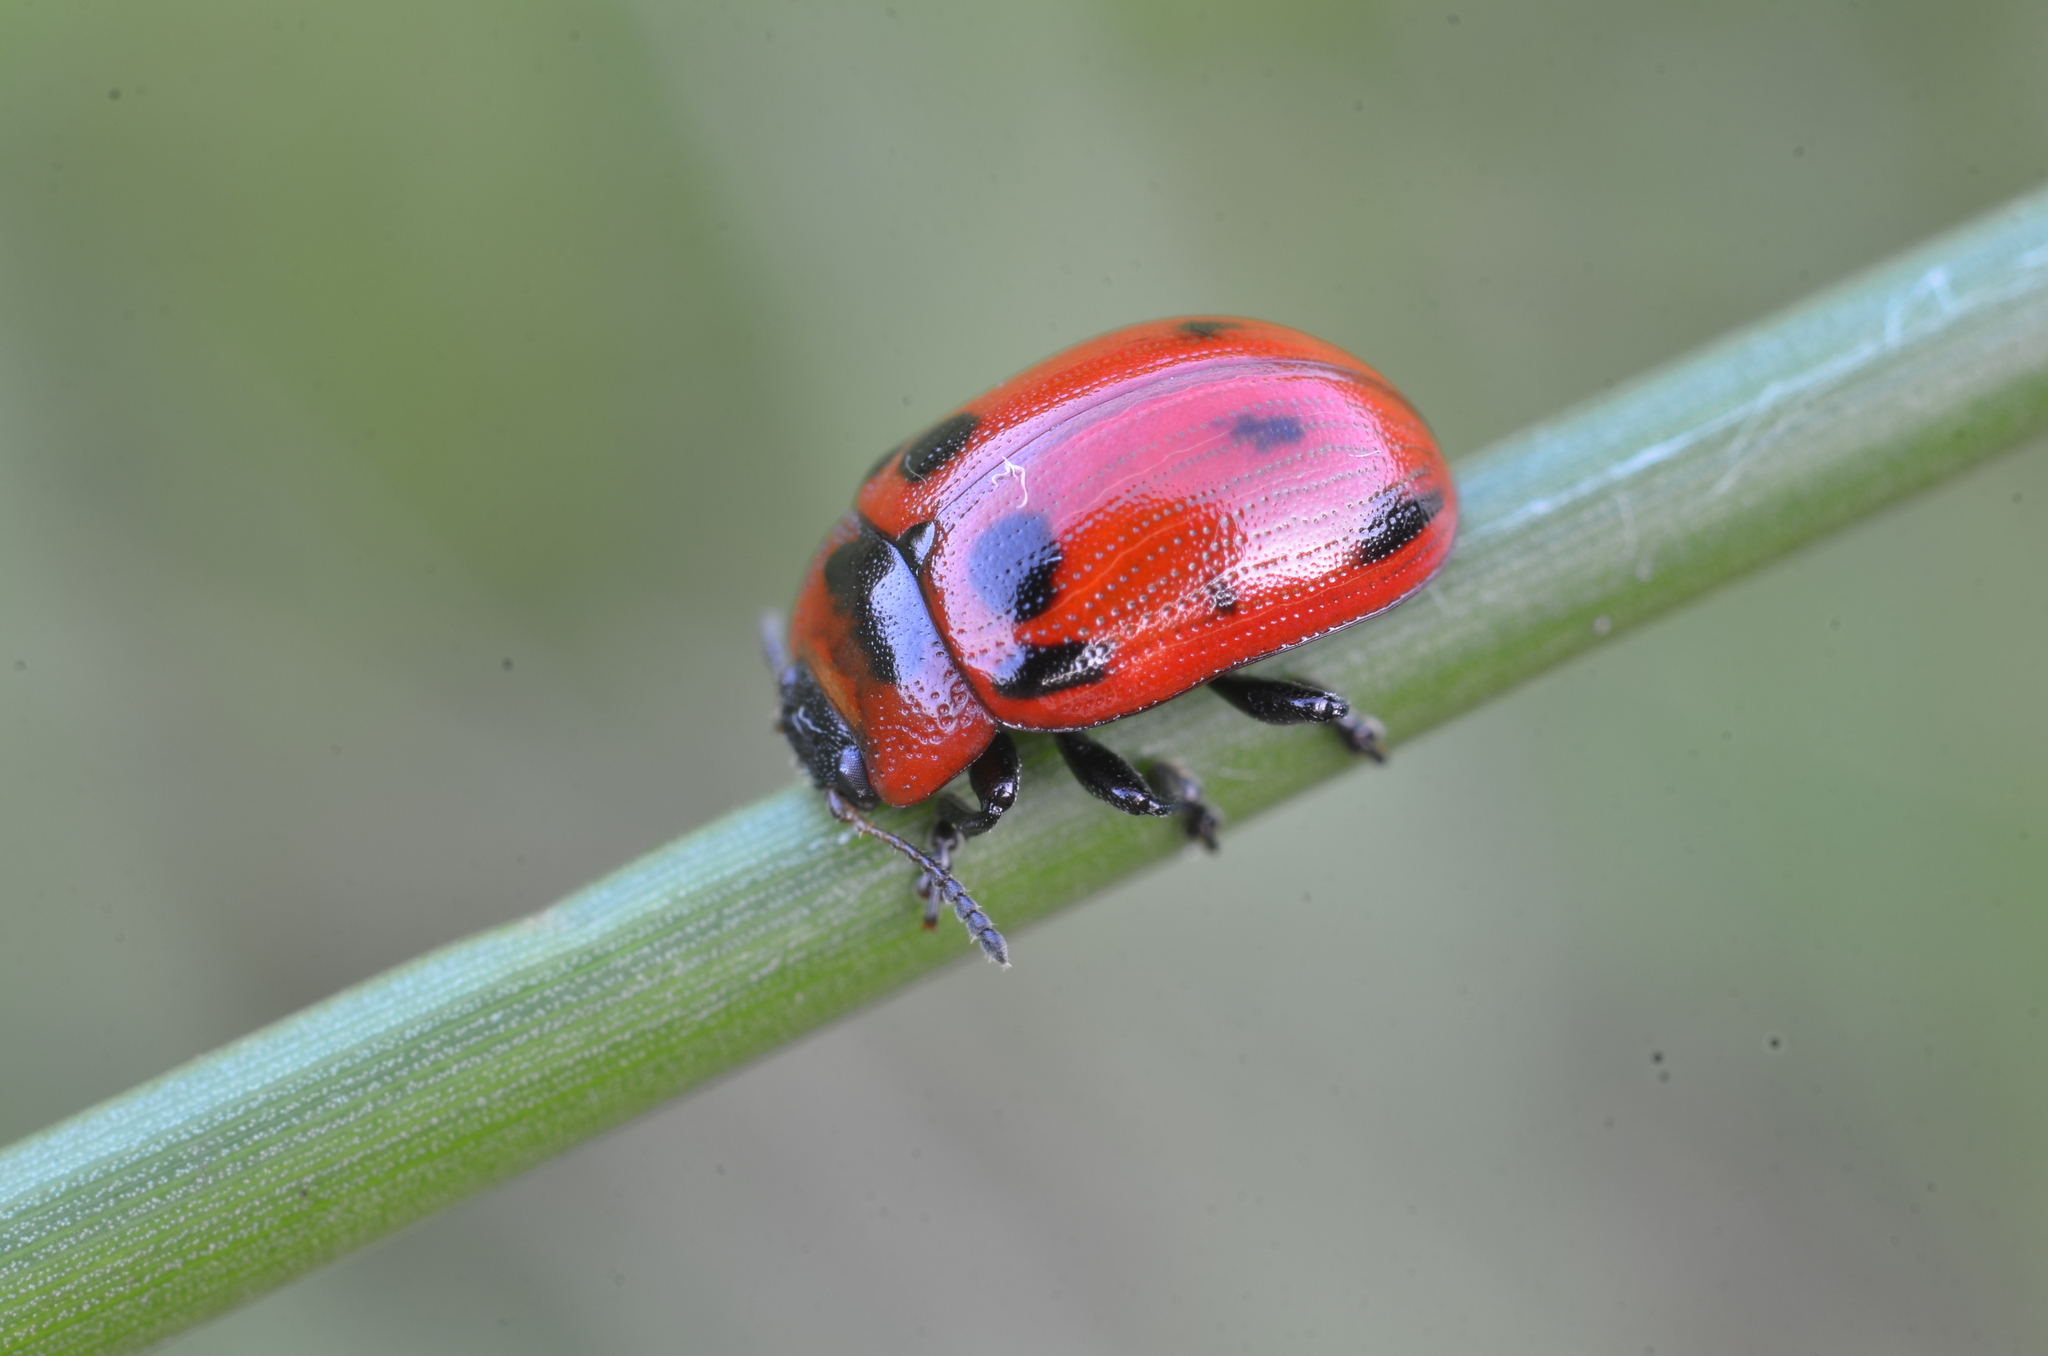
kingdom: Animalia
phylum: Arthropoda
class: Insecta
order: Coleoptera
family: Chrysomelidae
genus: Gonioctena
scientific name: Gonioctena viminalis
